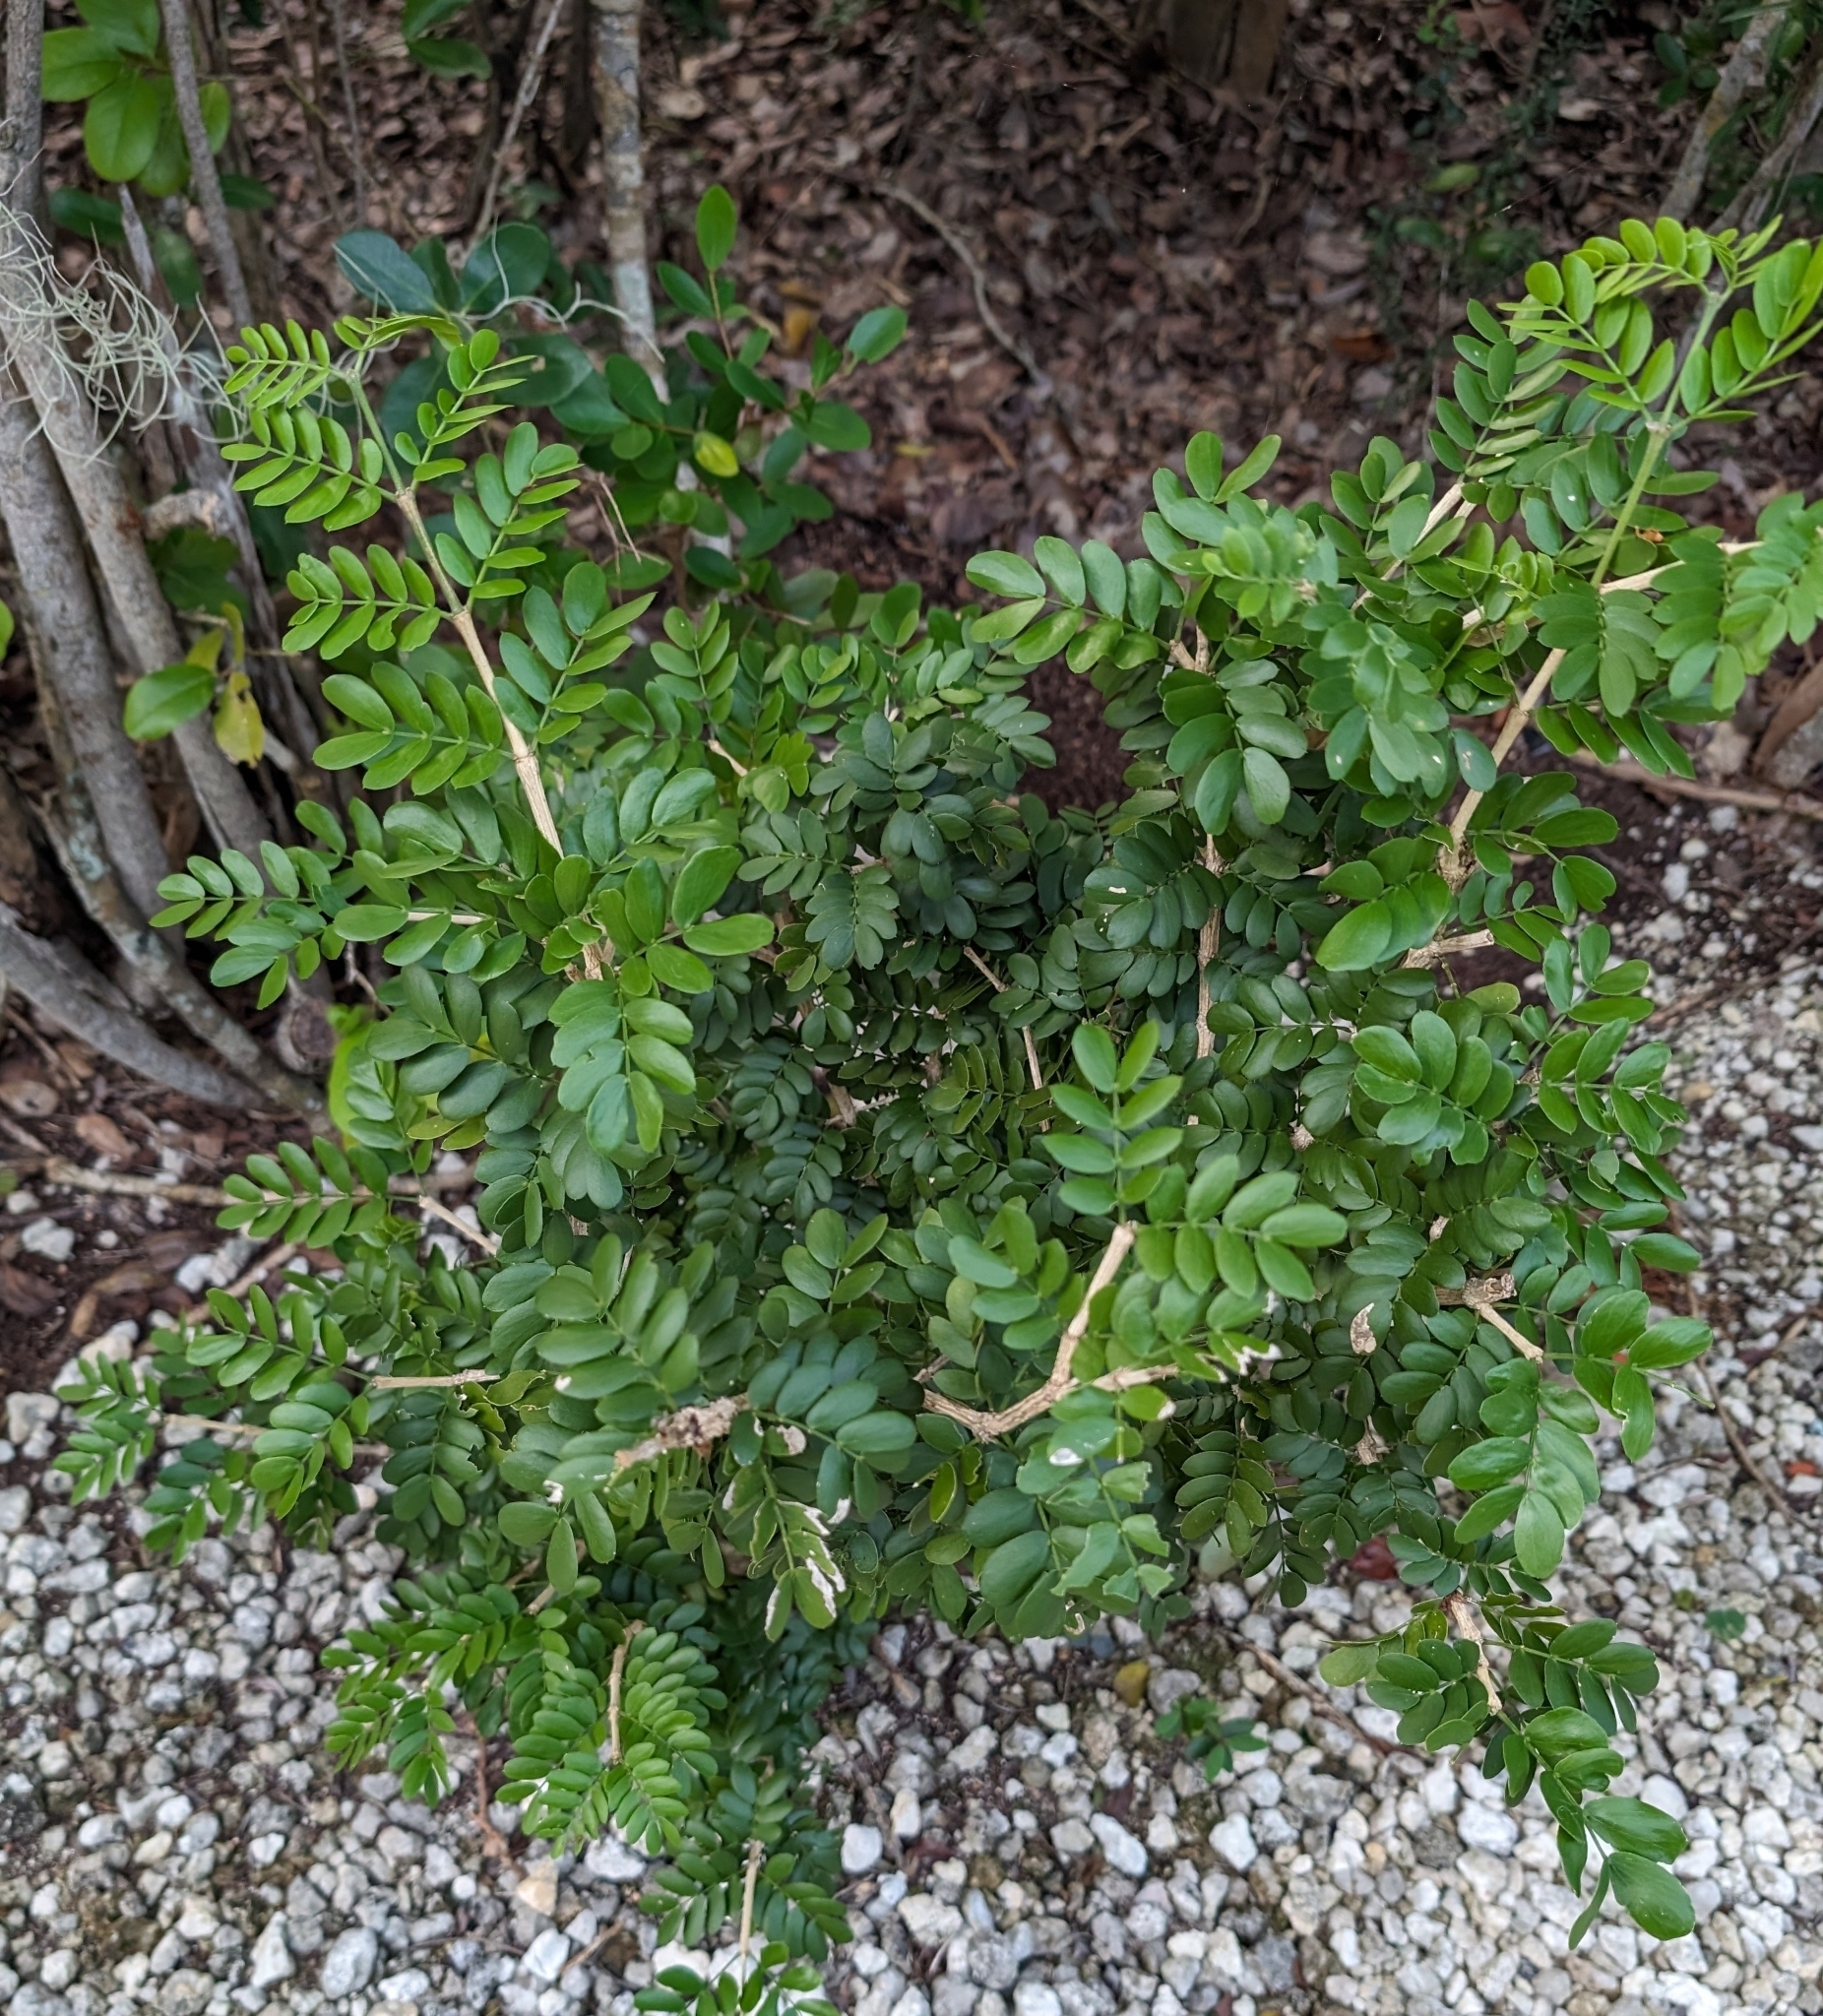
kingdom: Plantae
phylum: Tracheophyta
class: Magnoliopsida
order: Zygophyllales
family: Zygophyllaceae
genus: Guaiacum
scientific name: Guaiacum sanctum
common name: Holywood
